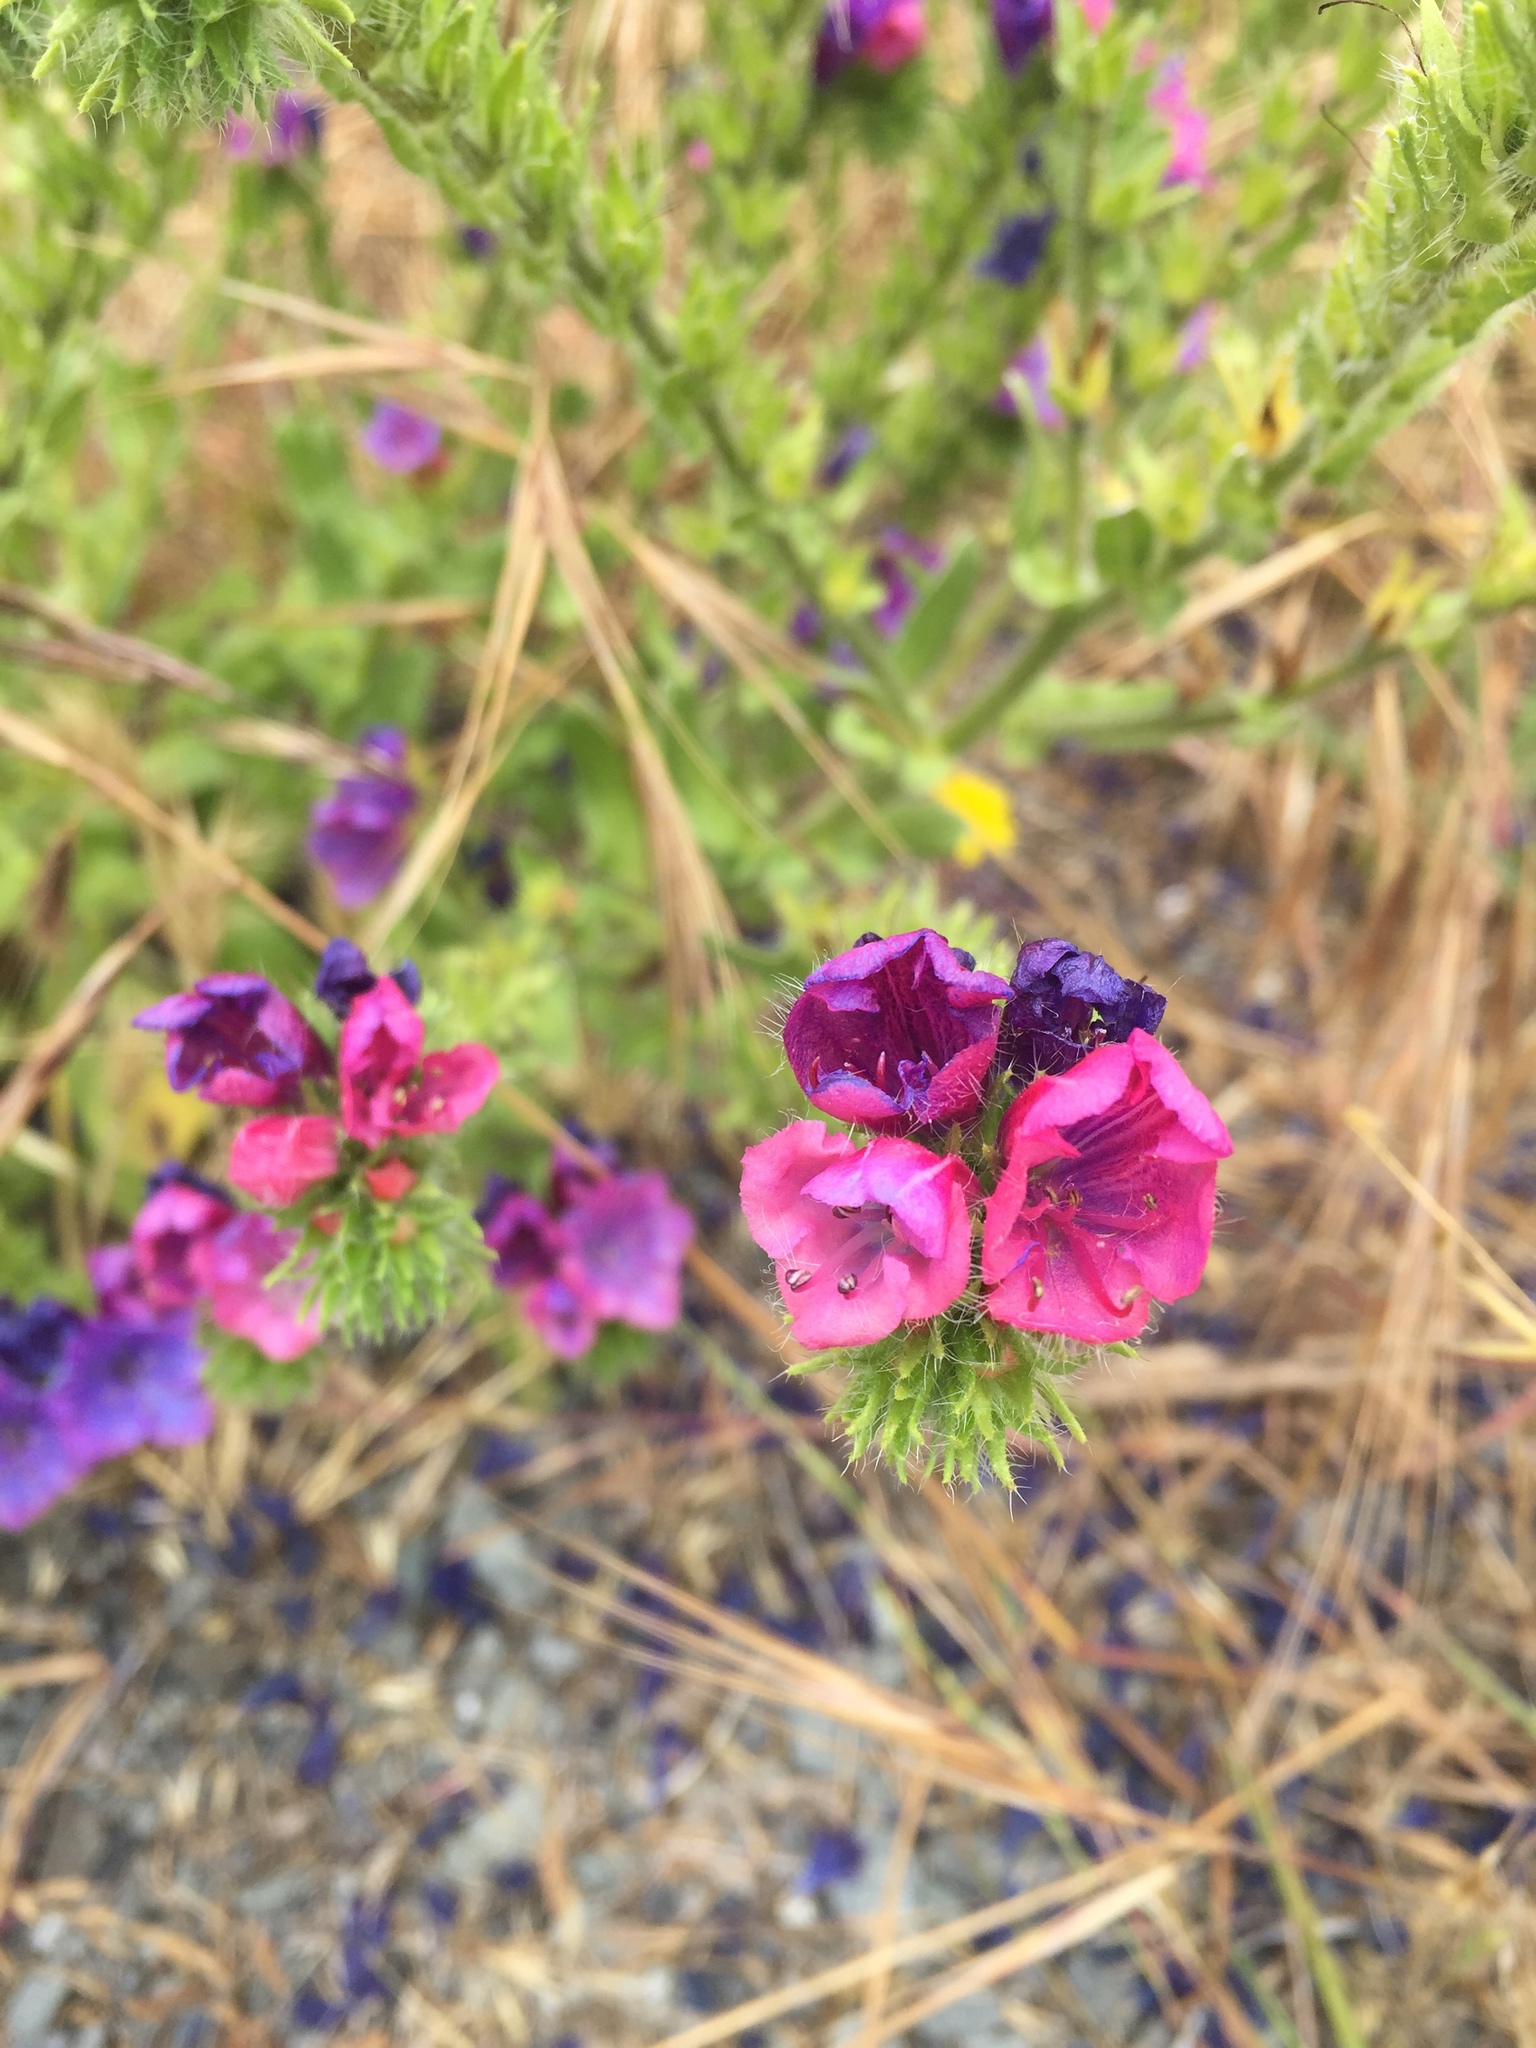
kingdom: Plantae
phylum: Tracheophyta
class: Magnoliopsida
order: Boraginales
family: Boraginaceae
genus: Echium
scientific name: Echium plantagineum
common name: Purple viper's-bugloss
